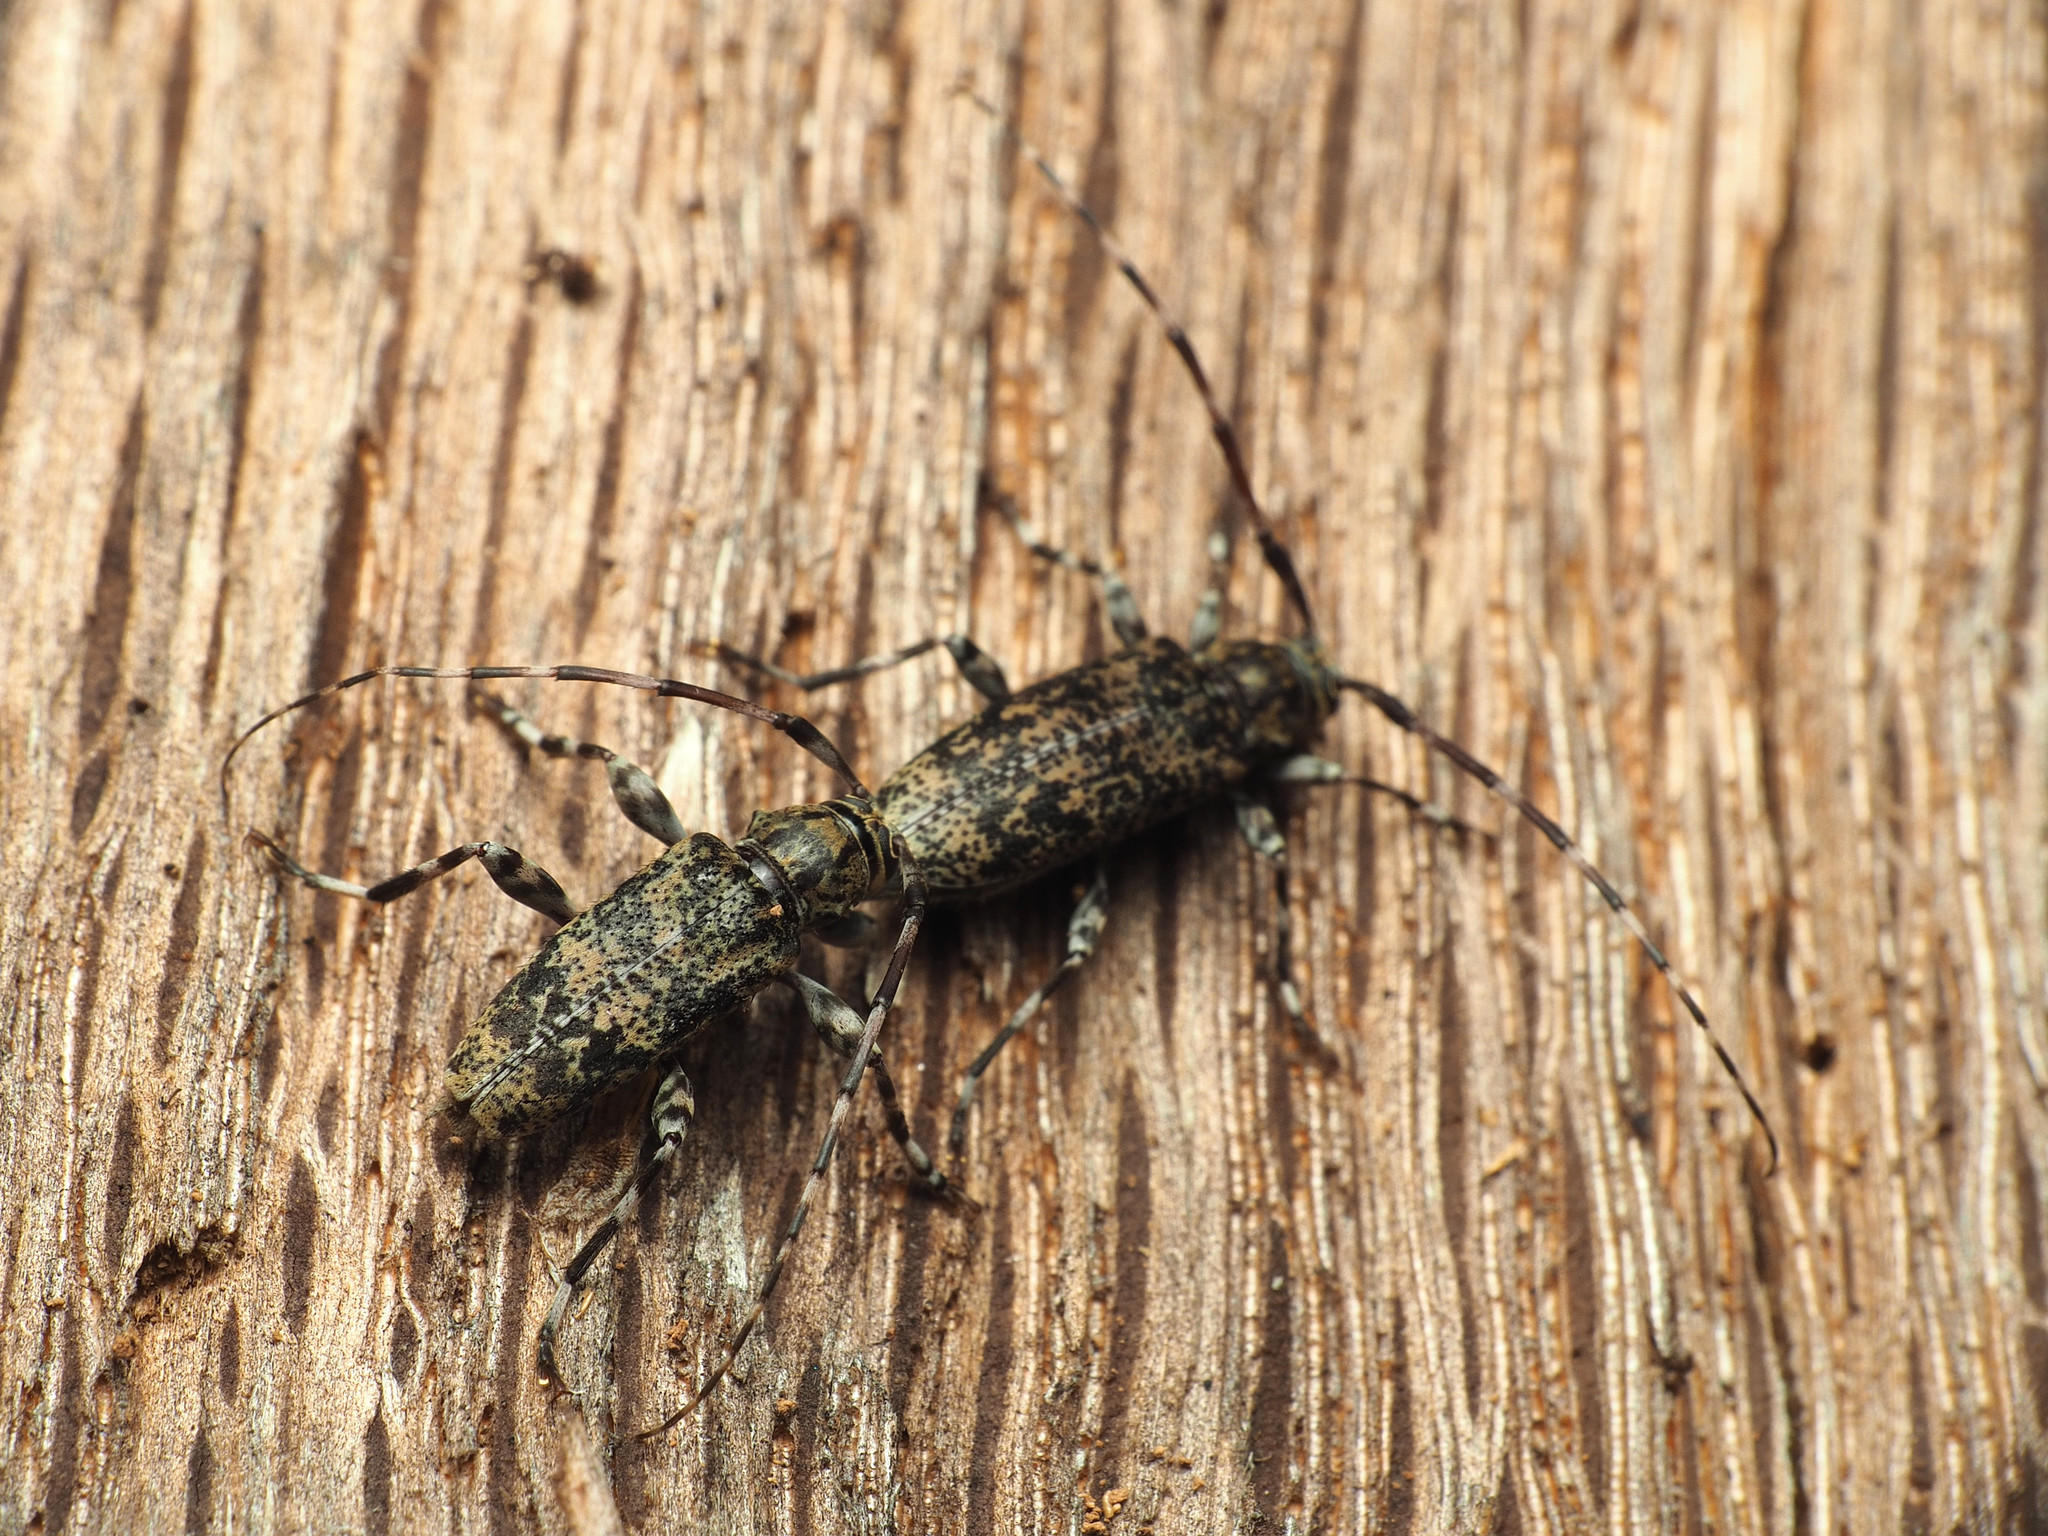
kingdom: Animalia
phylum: Arthropoda
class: Insecta
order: Coleoptera
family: Cerambycidae
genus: Graphisurus
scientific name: Graphisurus fasciatus
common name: Banded graphisurus
